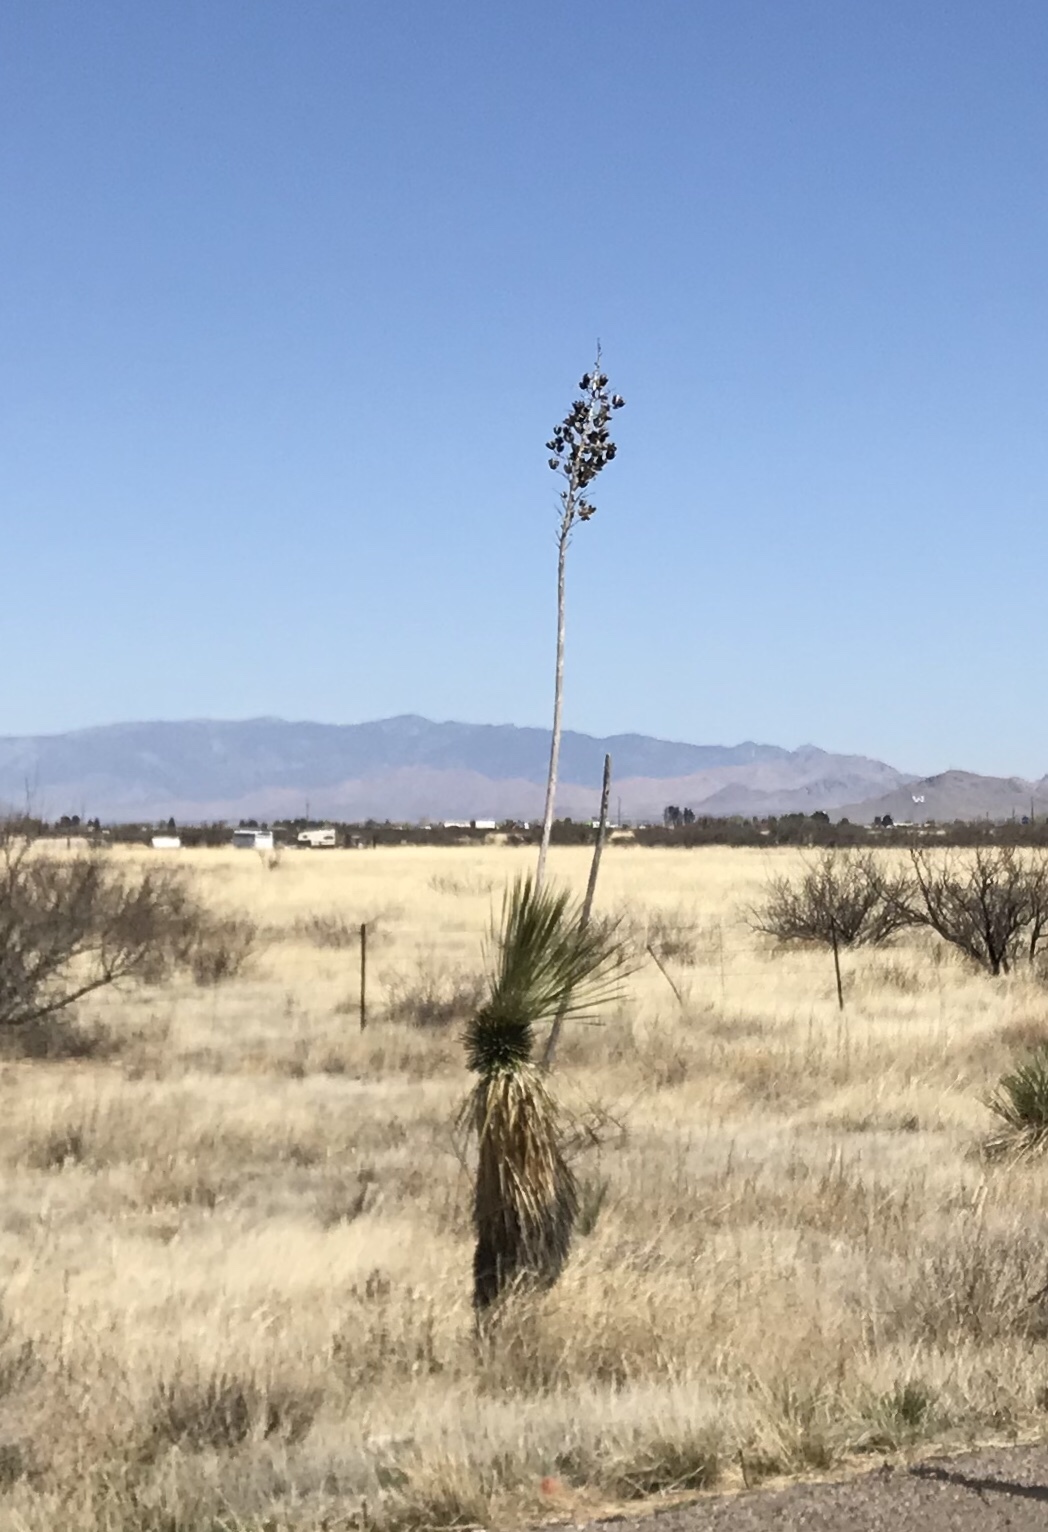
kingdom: Plantae
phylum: Tracheophyta
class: Liliopsida
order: Asparagales
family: Asparagaceae
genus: Yucca
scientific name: Yucca elata
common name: Palmella
